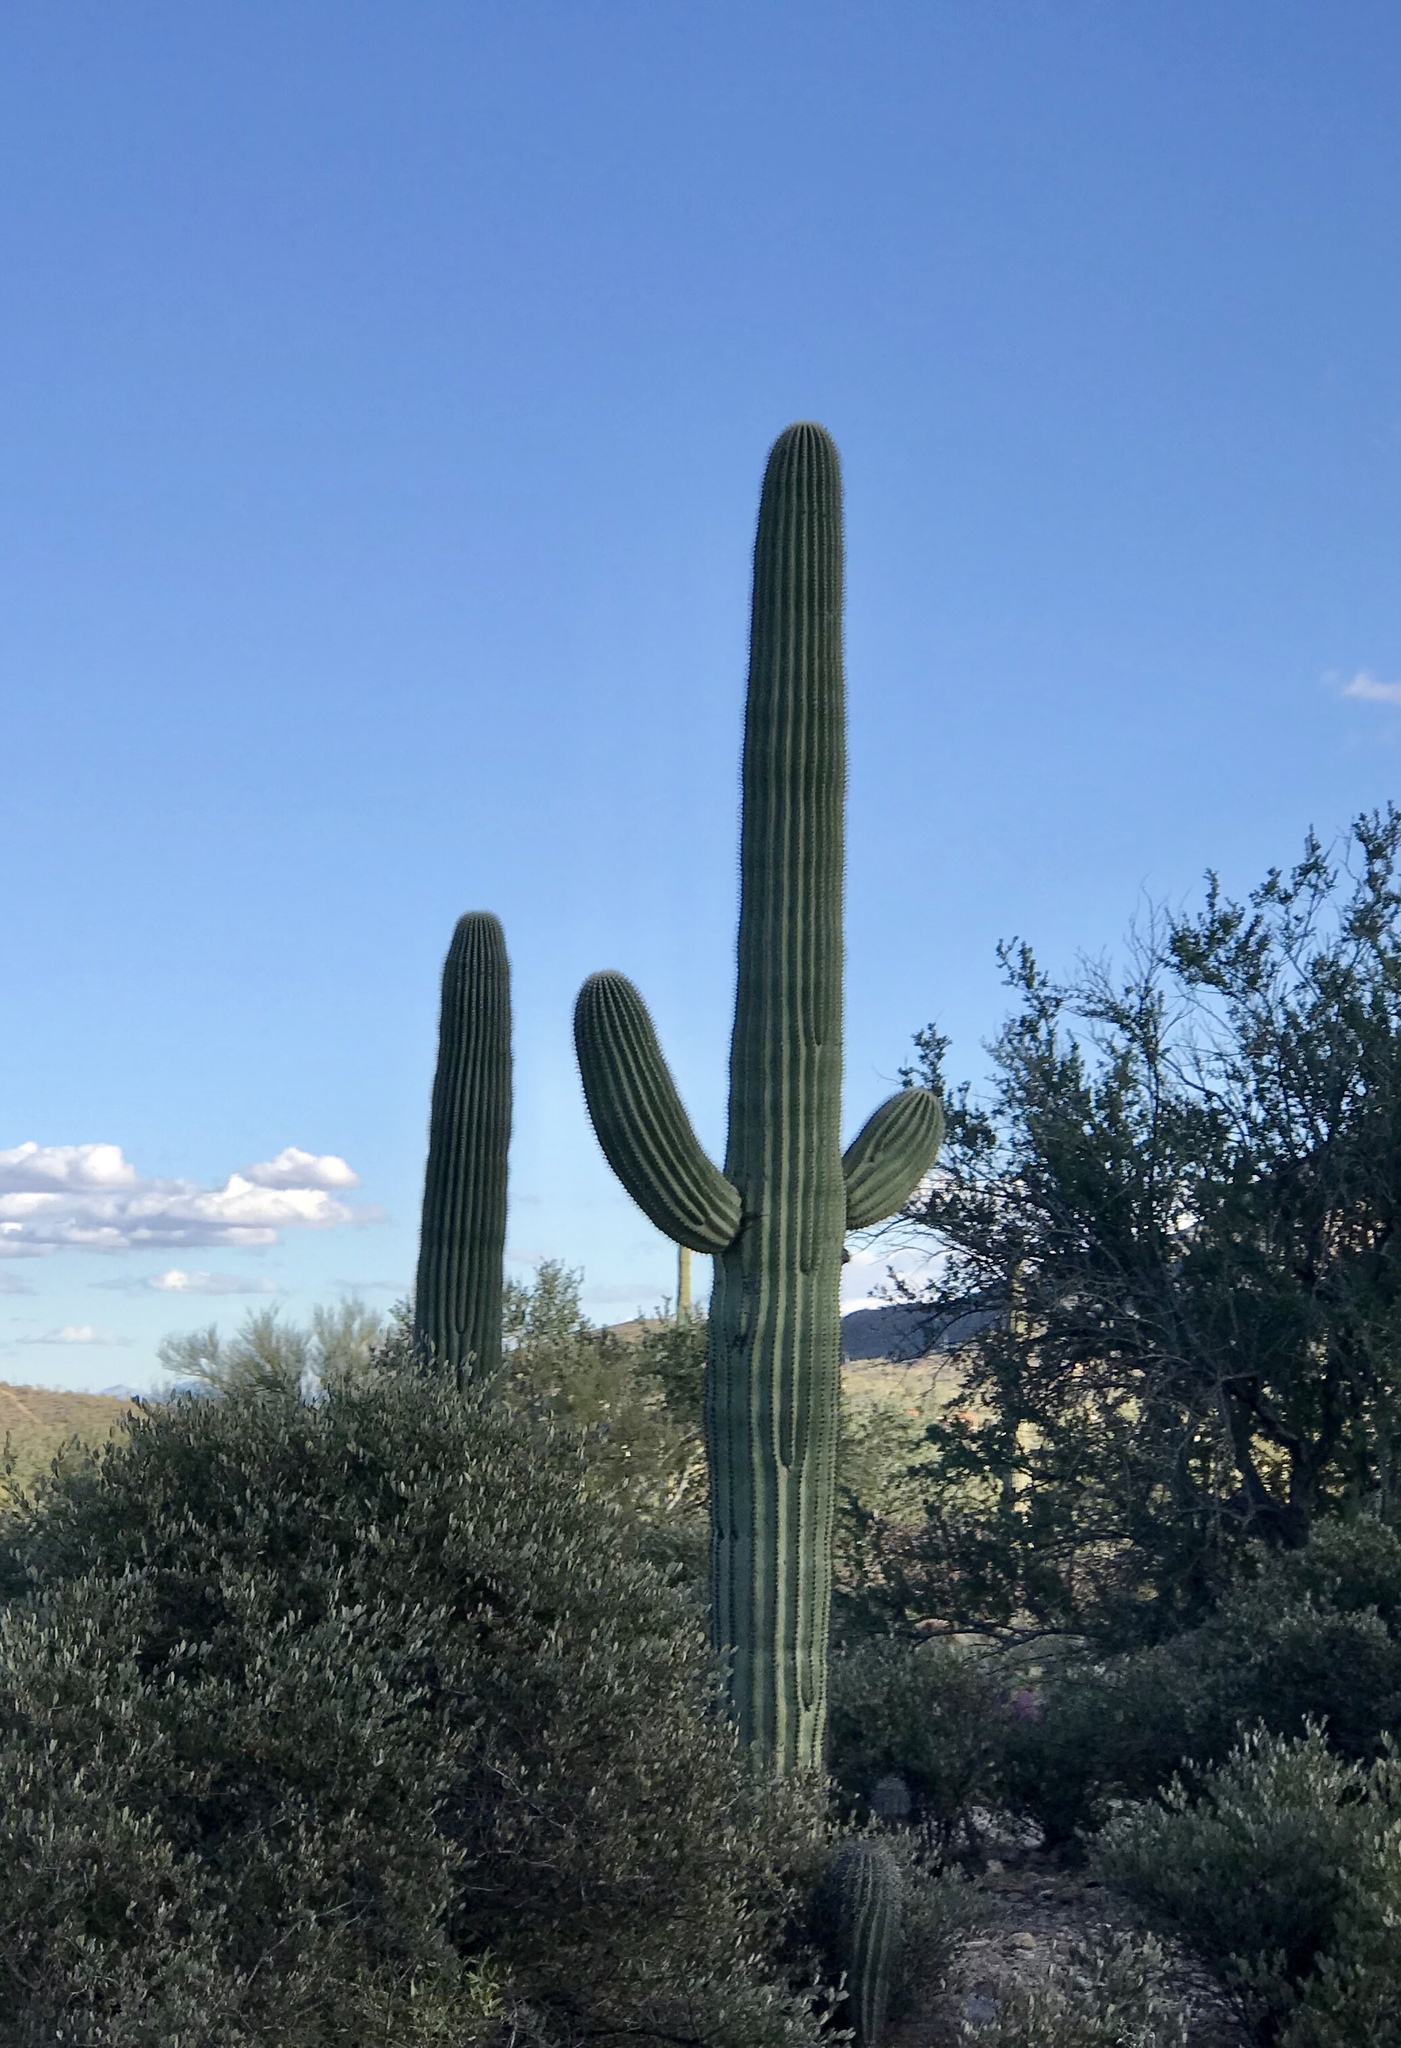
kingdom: Plantae
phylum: Tracheophyta
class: Magnoliopsida
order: Caryophyllales
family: Cactaceae
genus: Carnegiea
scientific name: Carnegiea gigantea
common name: Saguaro
